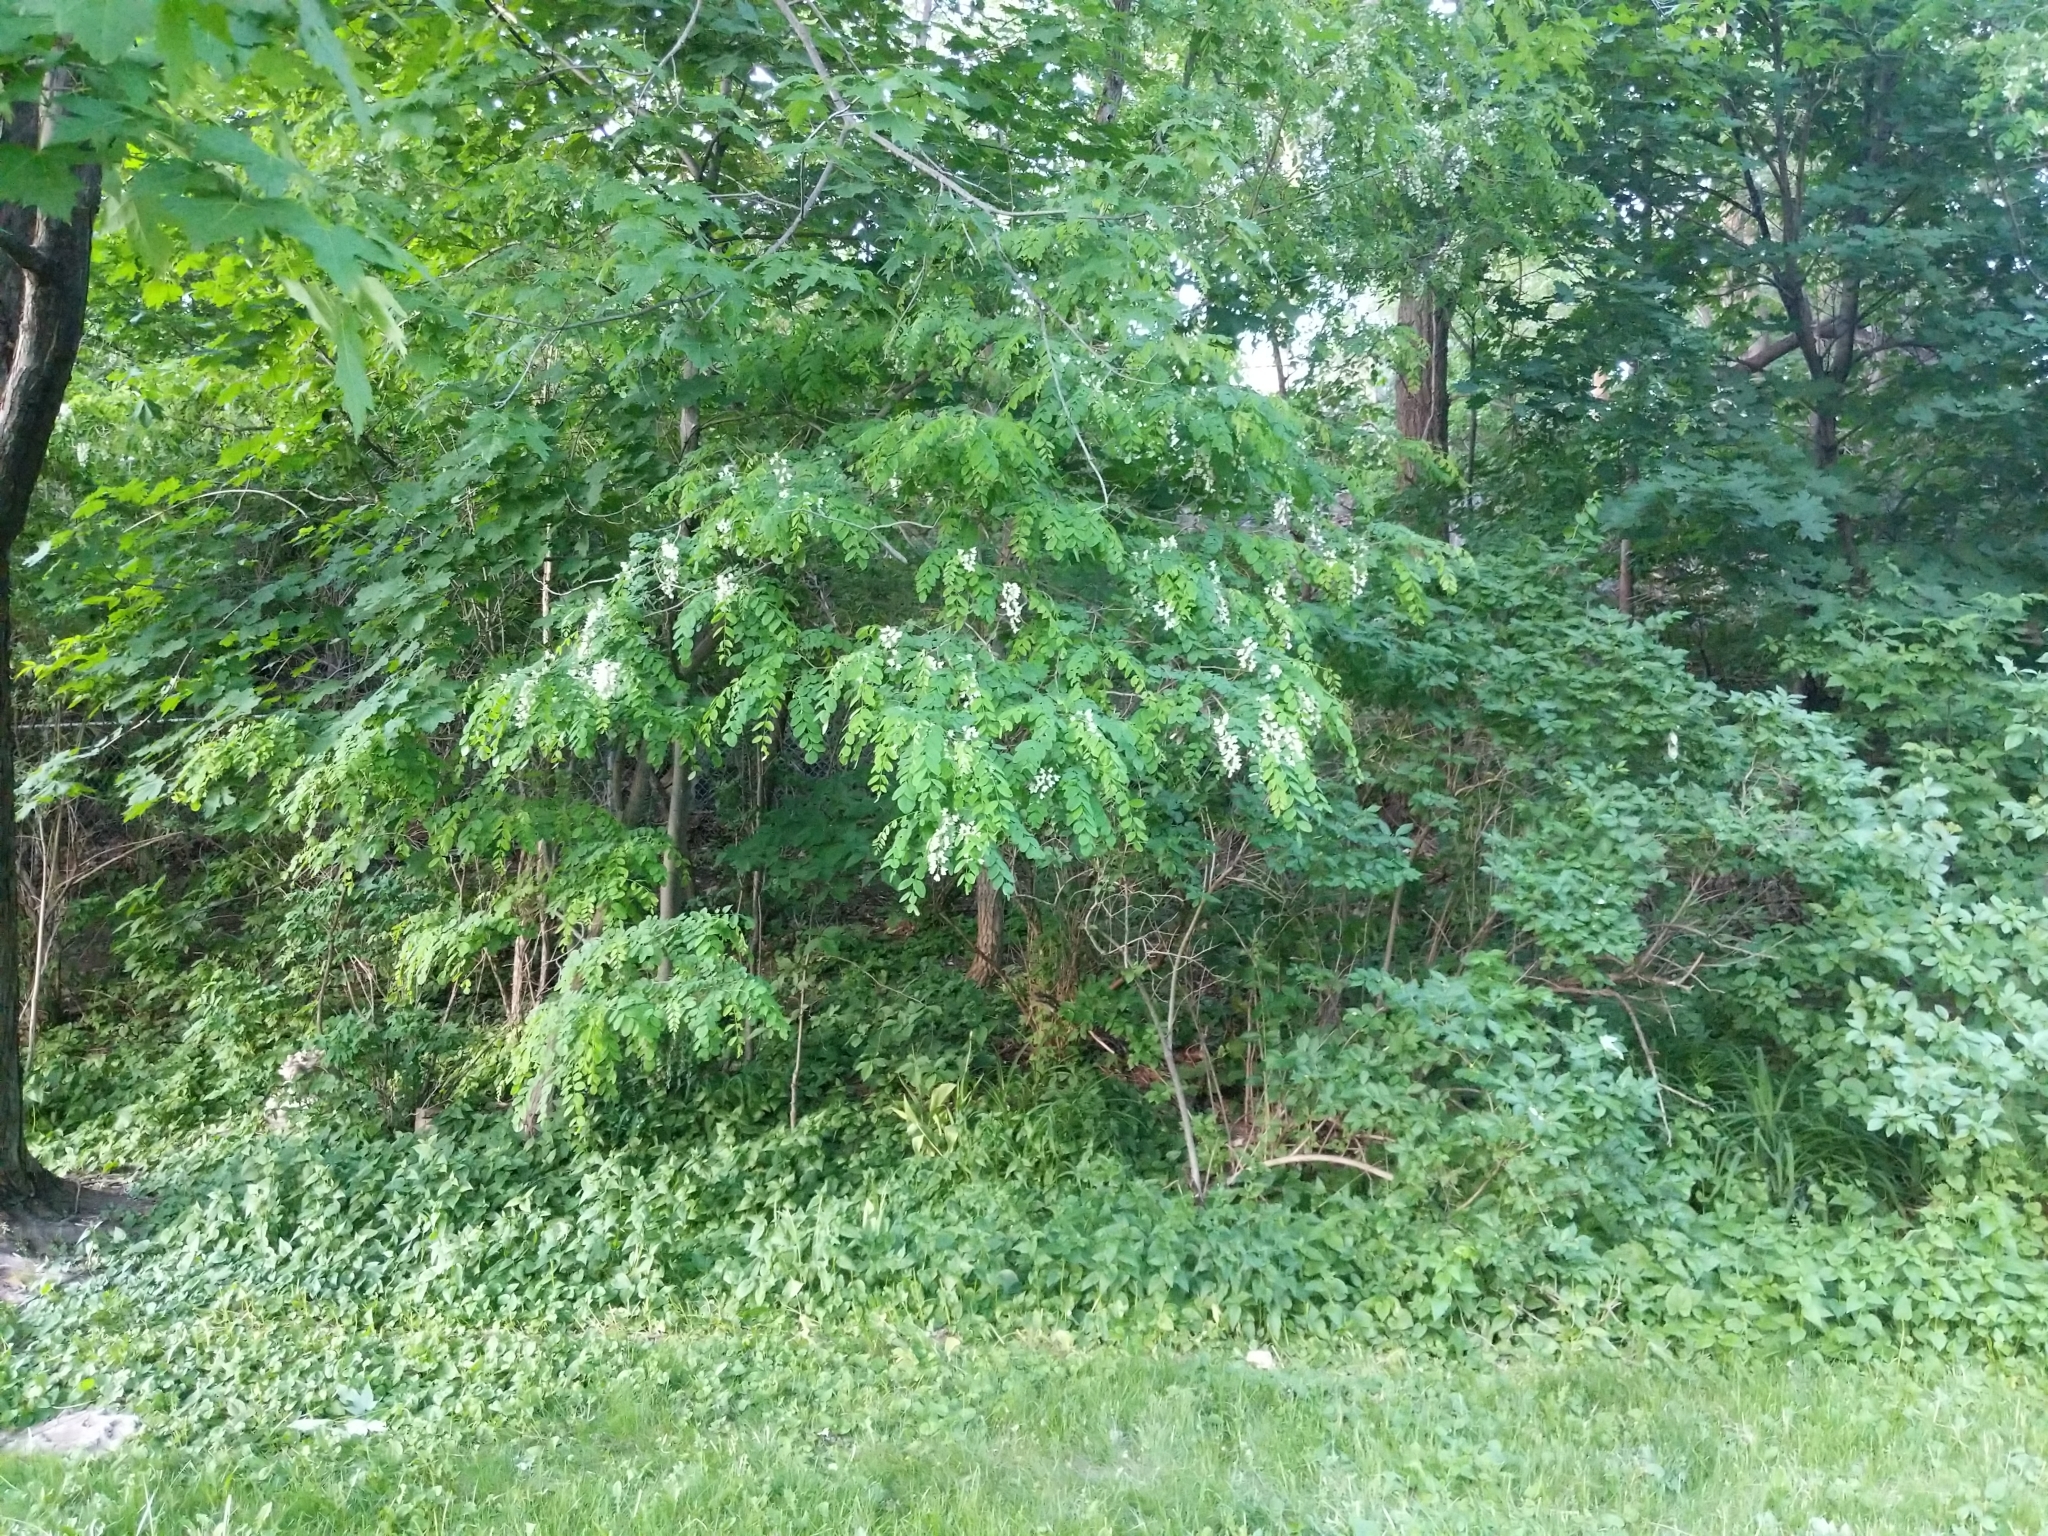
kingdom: Plantae
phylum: Tracheophyta
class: Magnoliopsida
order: Fabales
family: Fabaceae
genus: Robinia
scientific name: Robinia pseudoacacia
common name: Black locust
